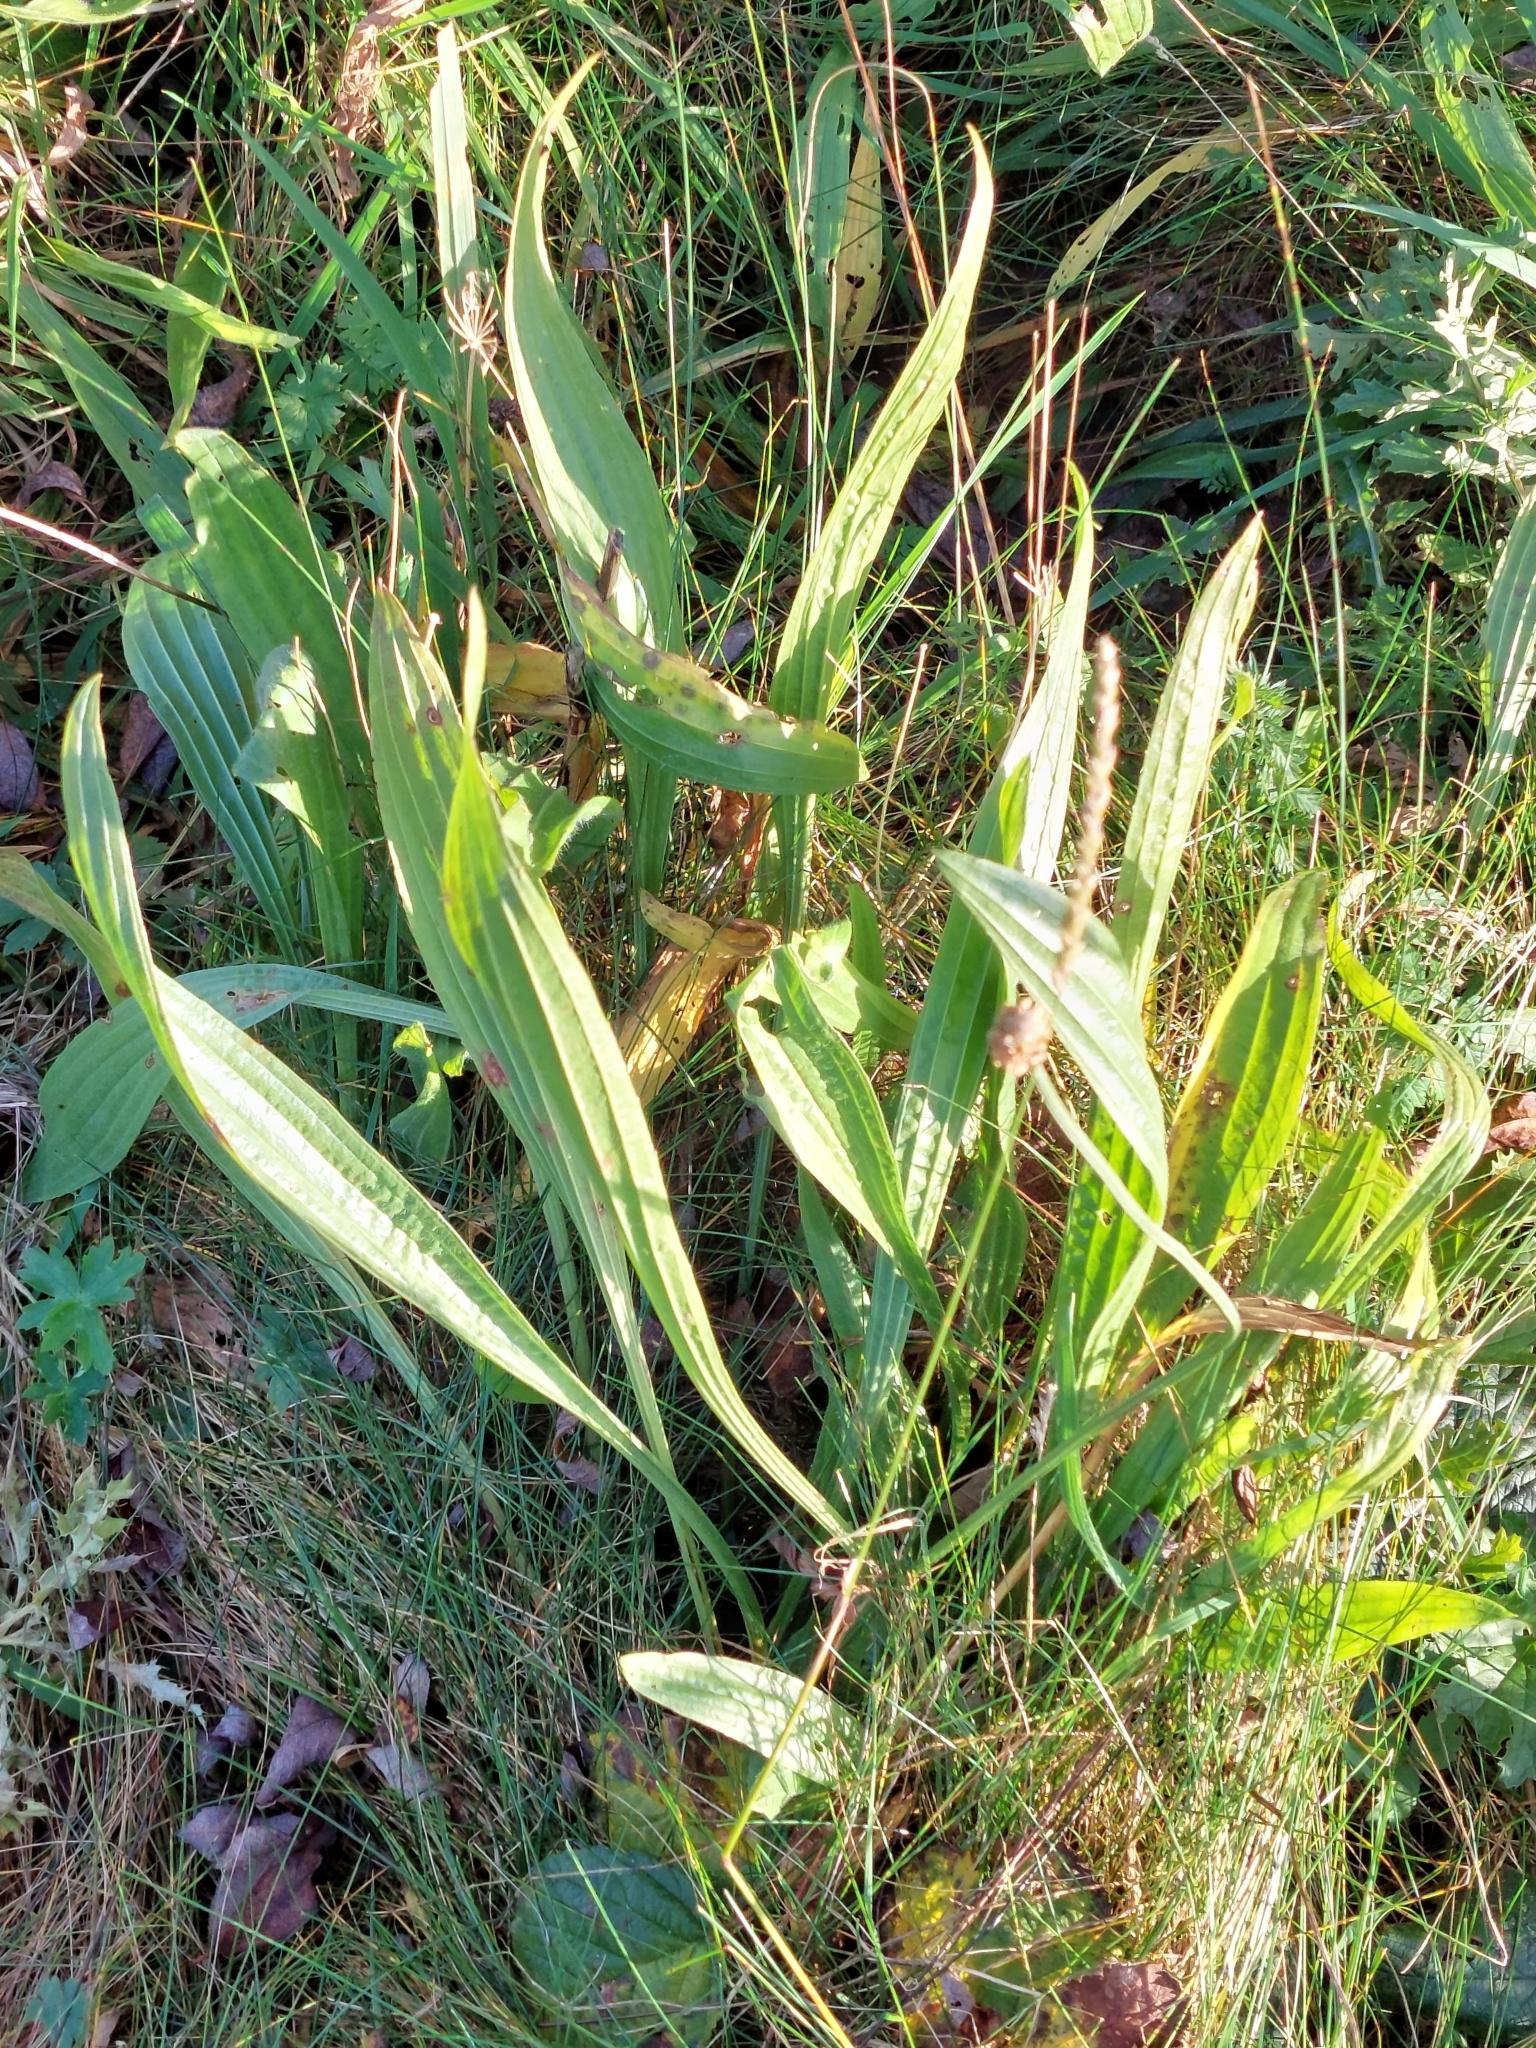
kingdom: Plantae
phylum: Tracheophyta
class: Magnoliopsida
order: Lamiales
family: Plantaginaceae
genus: Plantago
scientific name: Plantago lanceolata
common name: Ribwort plantain
